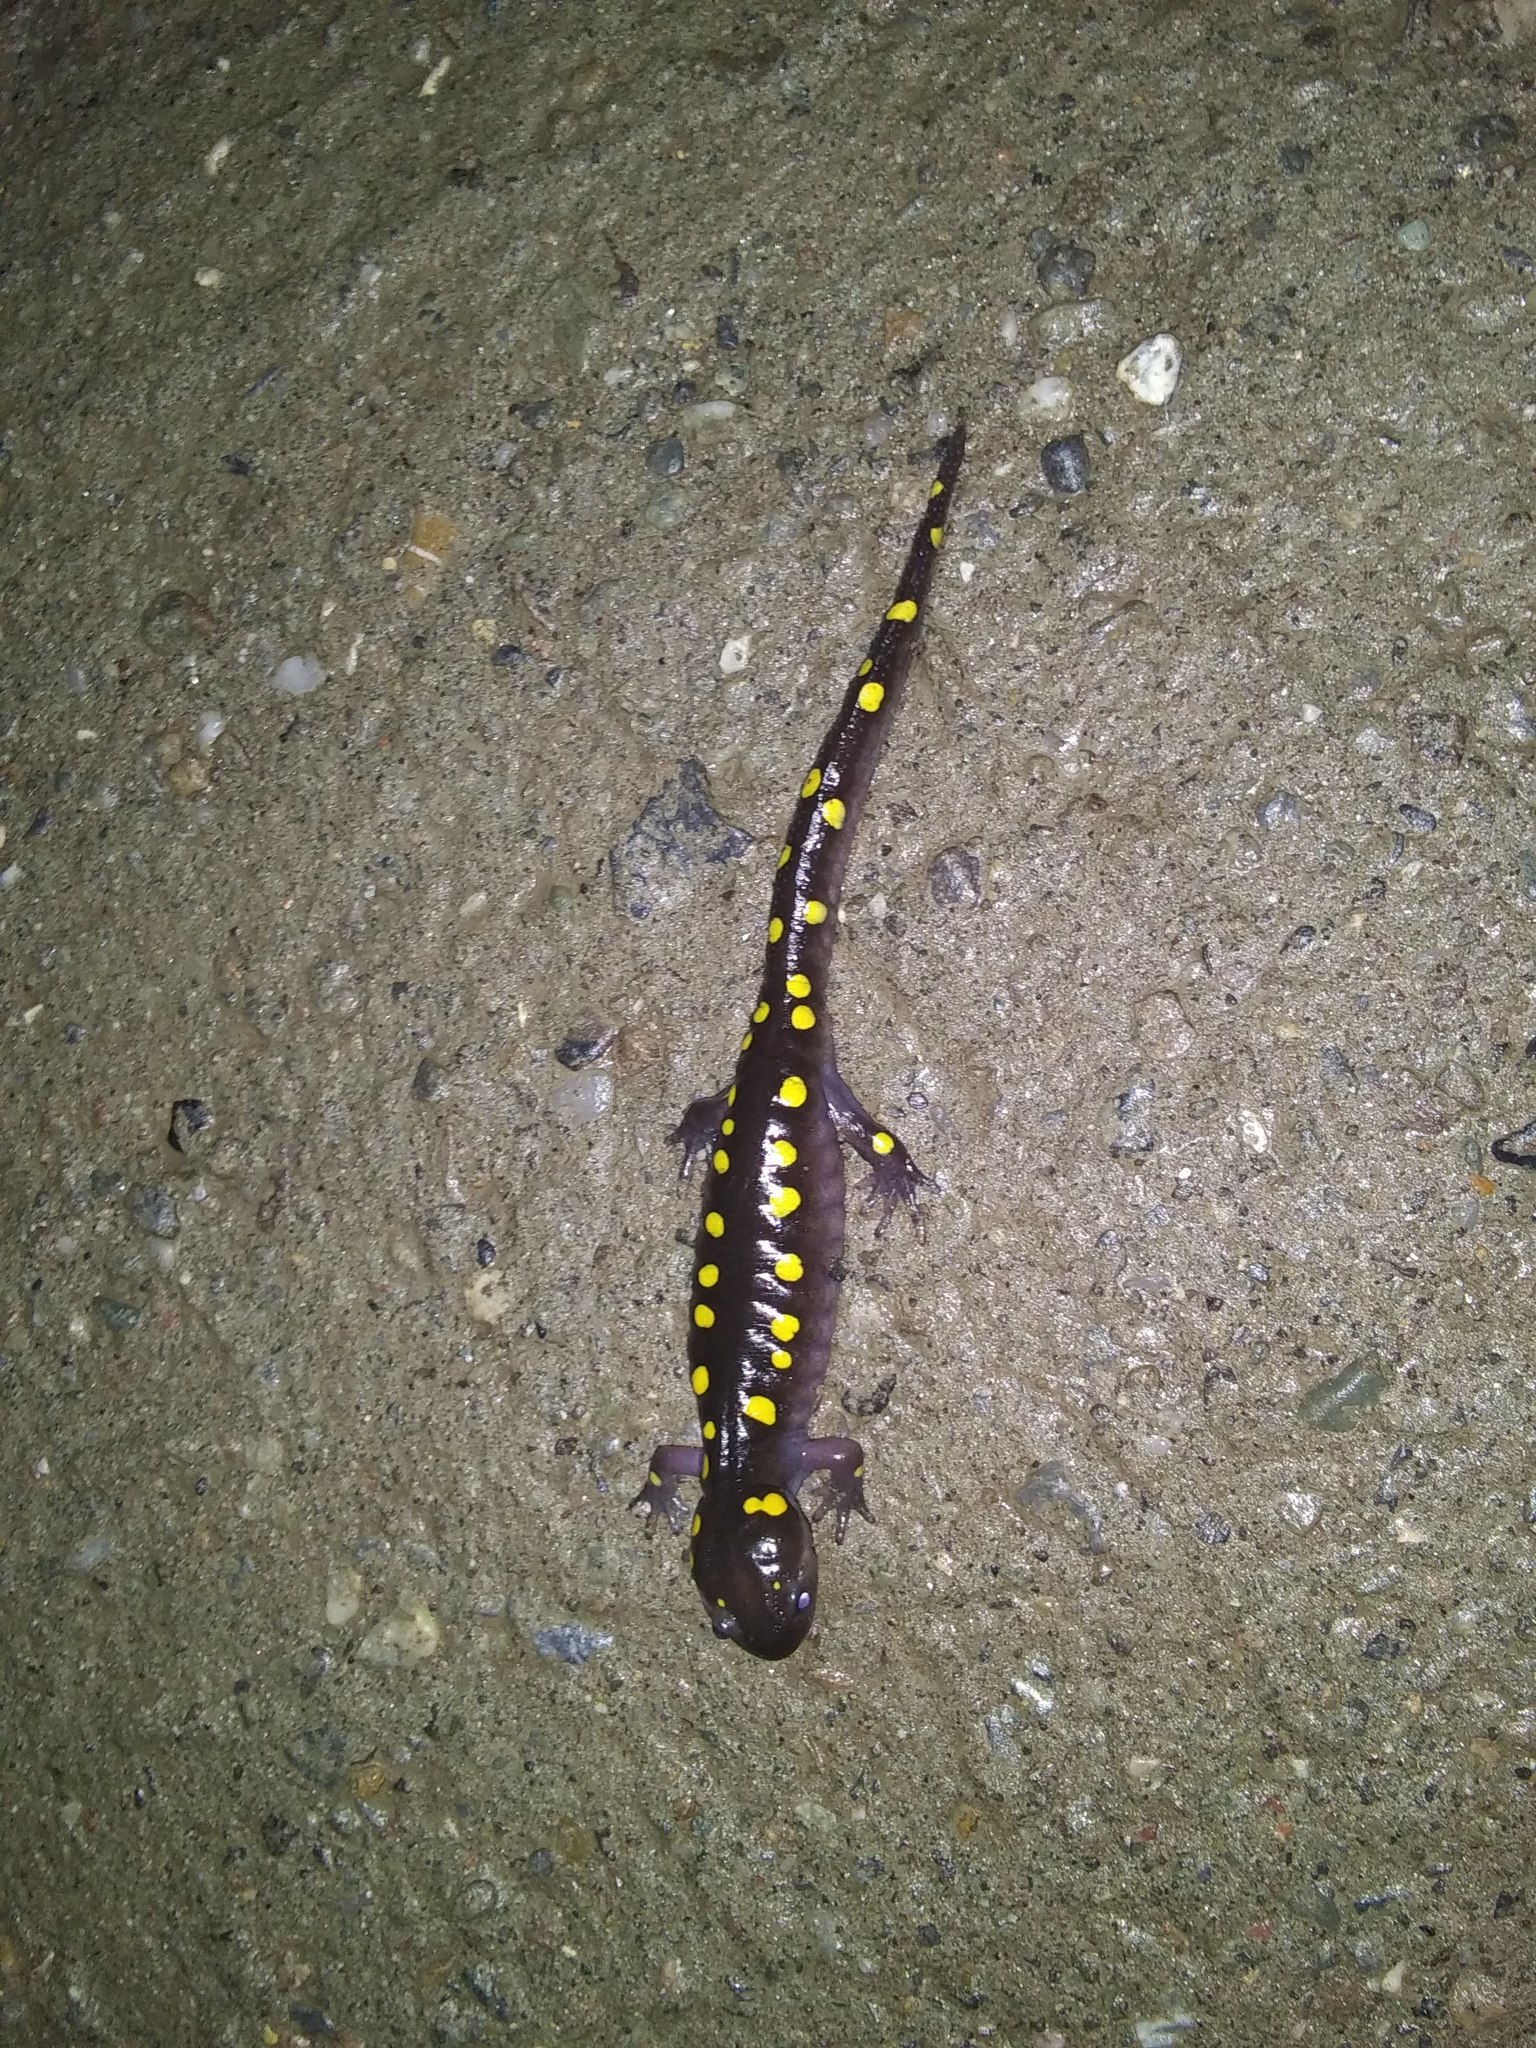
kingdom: Animalia
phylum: Chordata
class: Amphibia
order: Caudata
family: Ambystomatidae
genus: Ambystoma
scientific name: Ambystoma maculatum
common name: Spotted salamander
